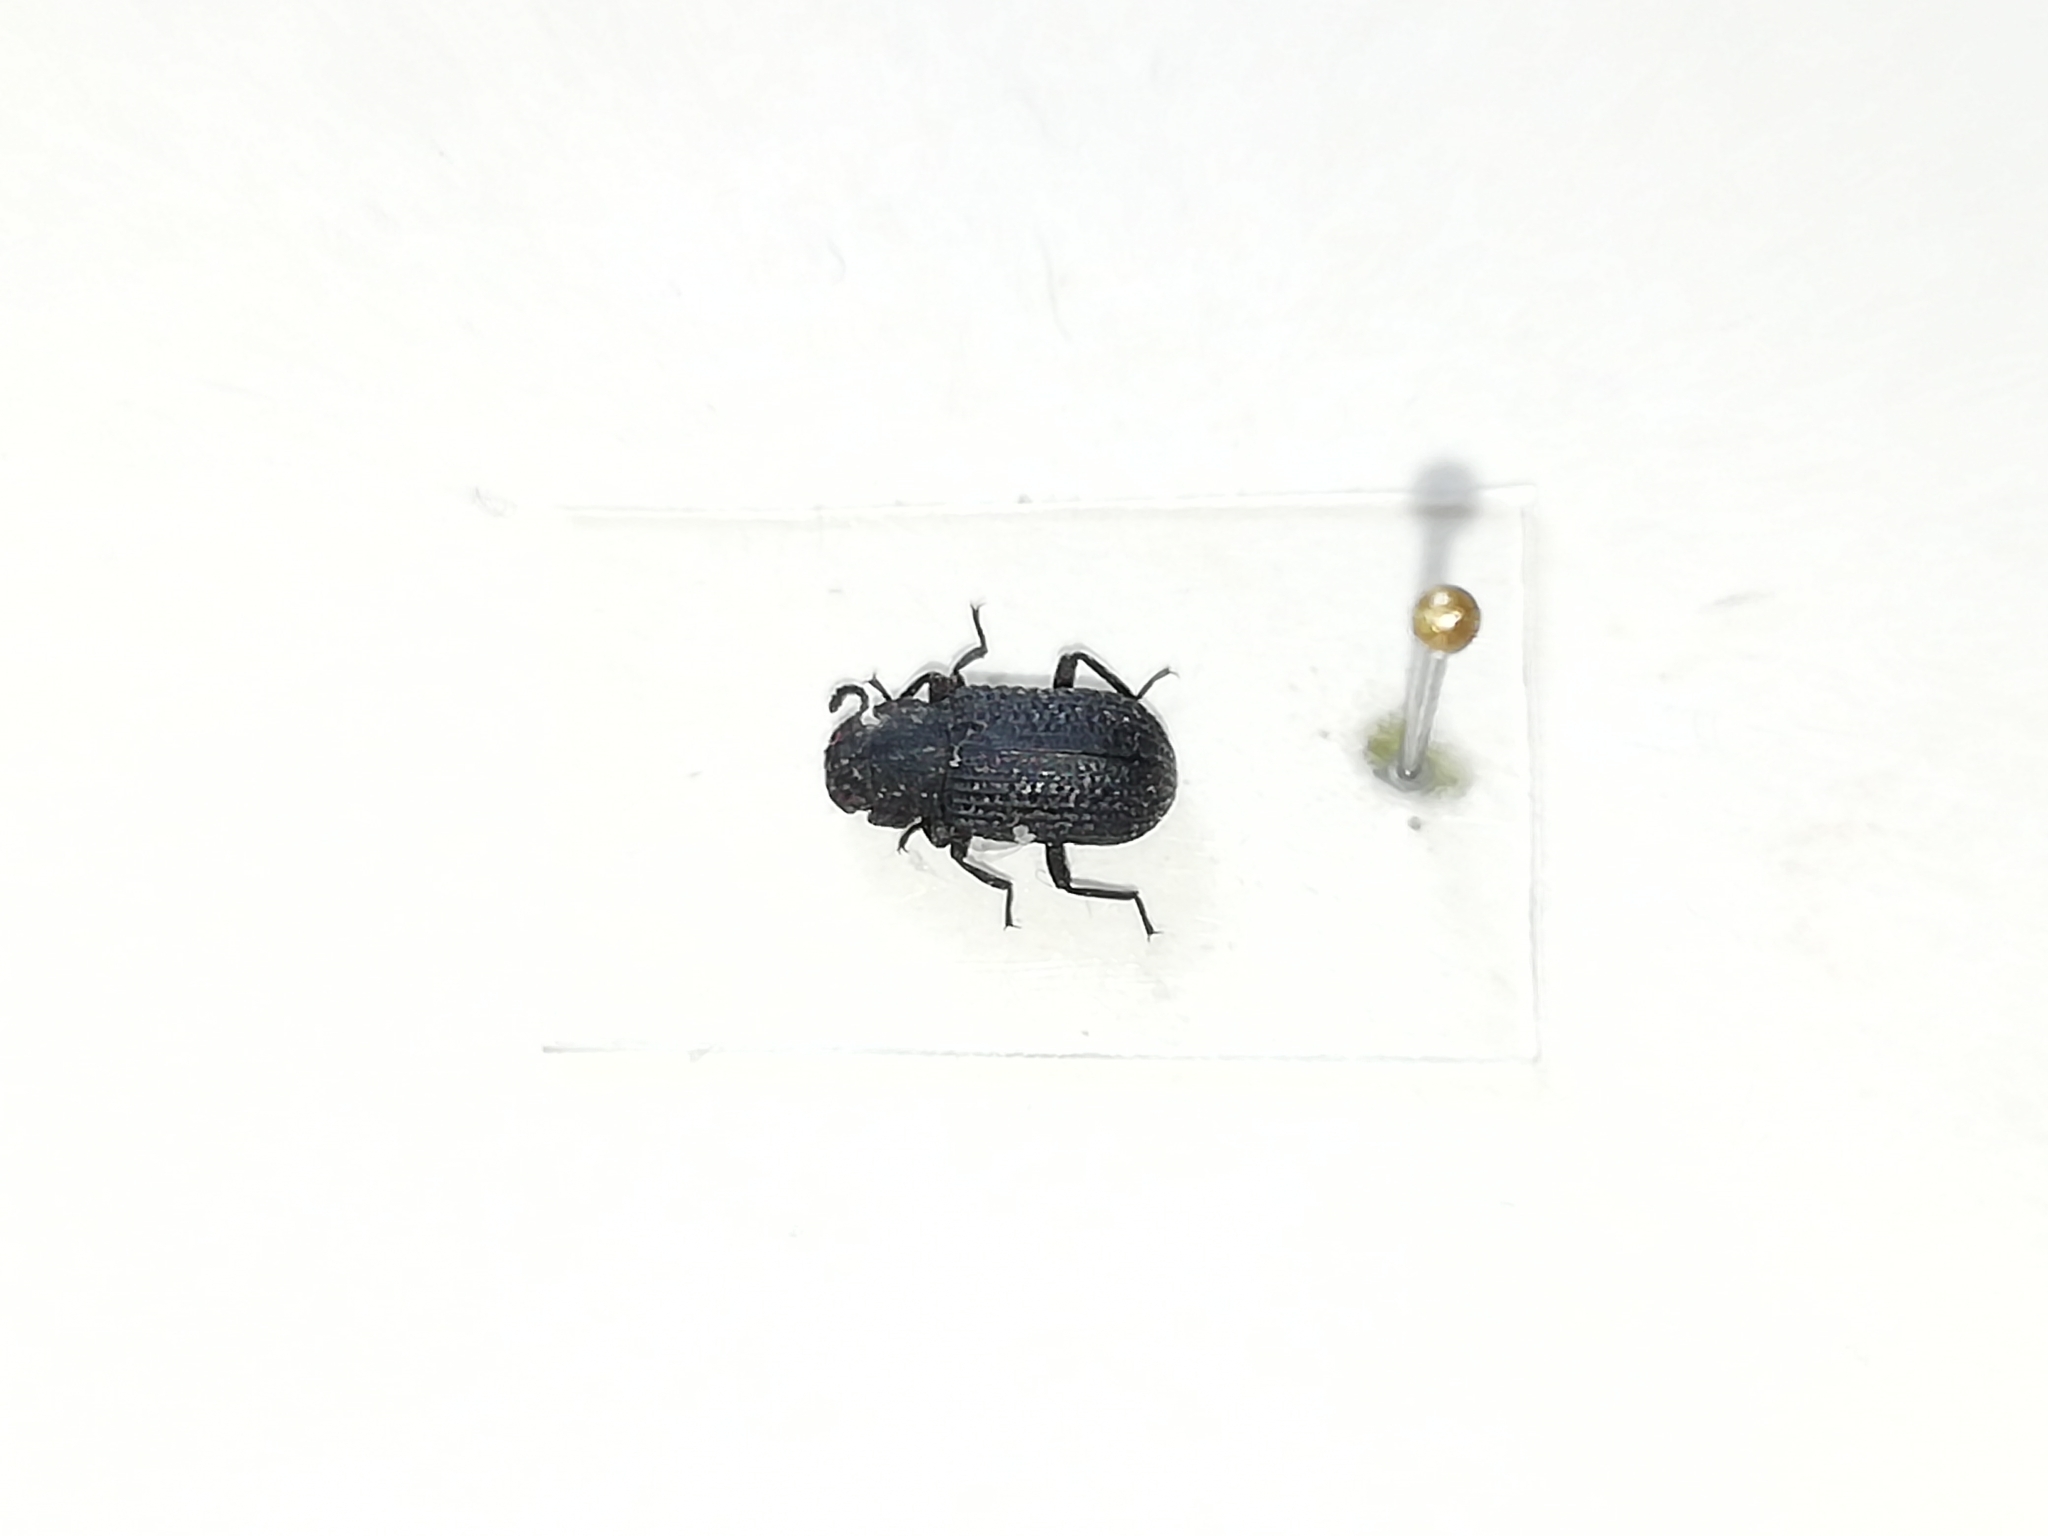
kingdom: Animalia
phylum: Arthropoda
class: Insecta
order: Coleoptera
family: Tenebrionidae
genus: Bolitophagus
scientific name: Bolitophagus reticulatus
